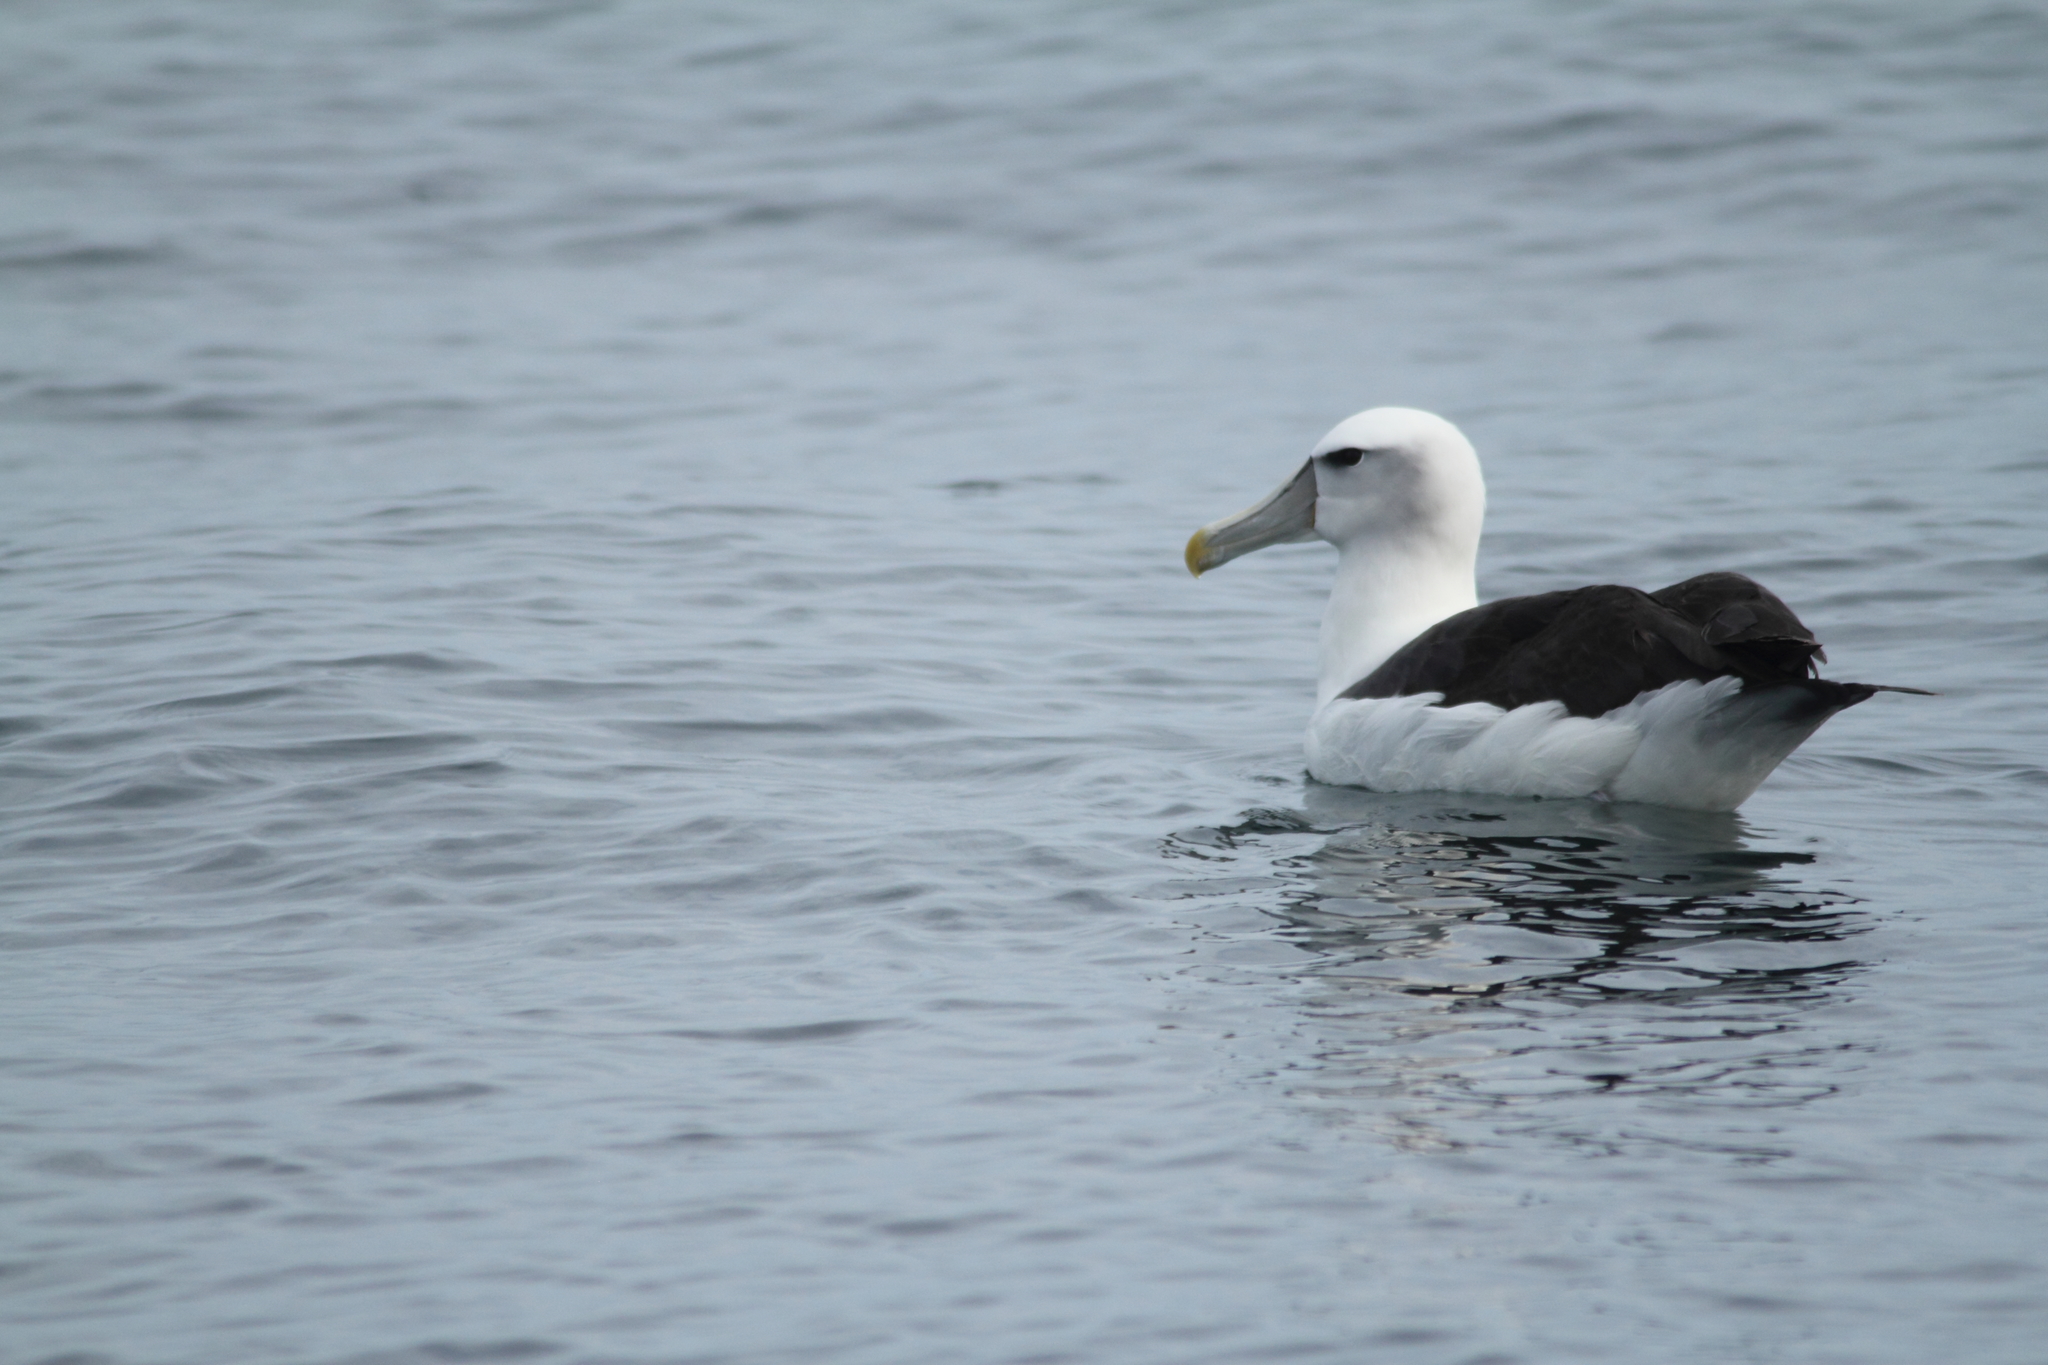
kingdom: Animalia
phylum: Chordata
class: Aves
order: Procellariiformes
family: Diomedeidae
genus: Thalassarche
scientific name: Thalassarche cauta
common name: Shy albatross
